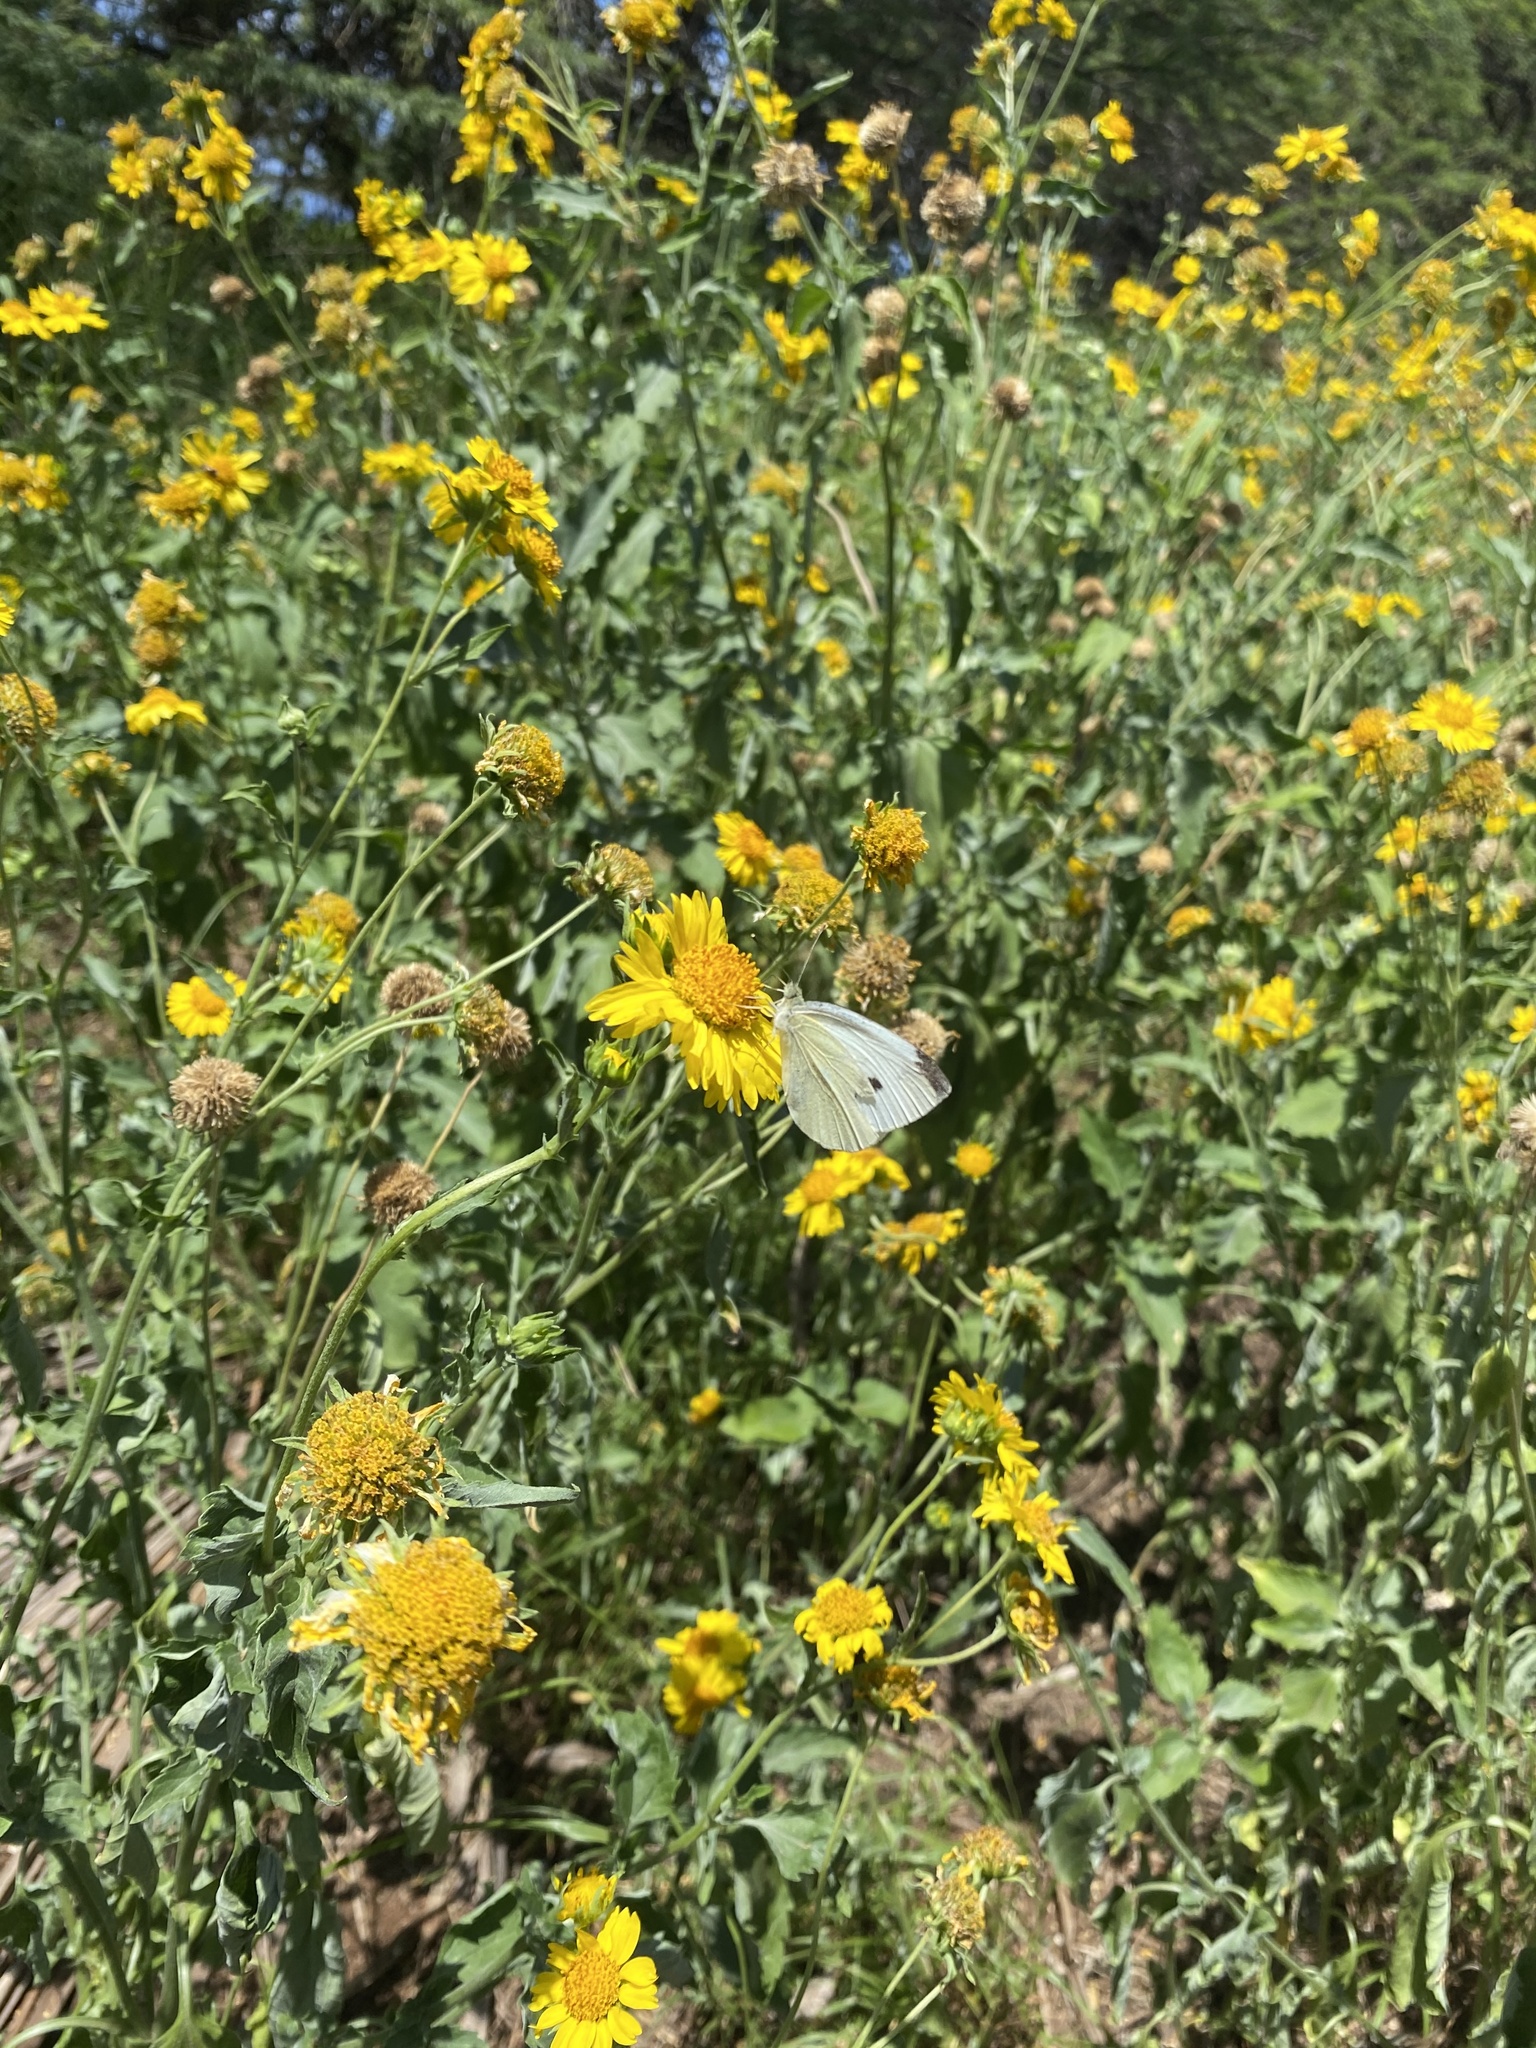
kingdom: Animalia
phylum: Arthropoda
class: Insecta
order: Lepidoptera
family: Pieridae
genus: Pieris
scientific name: Pieris rapae
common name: Small white
